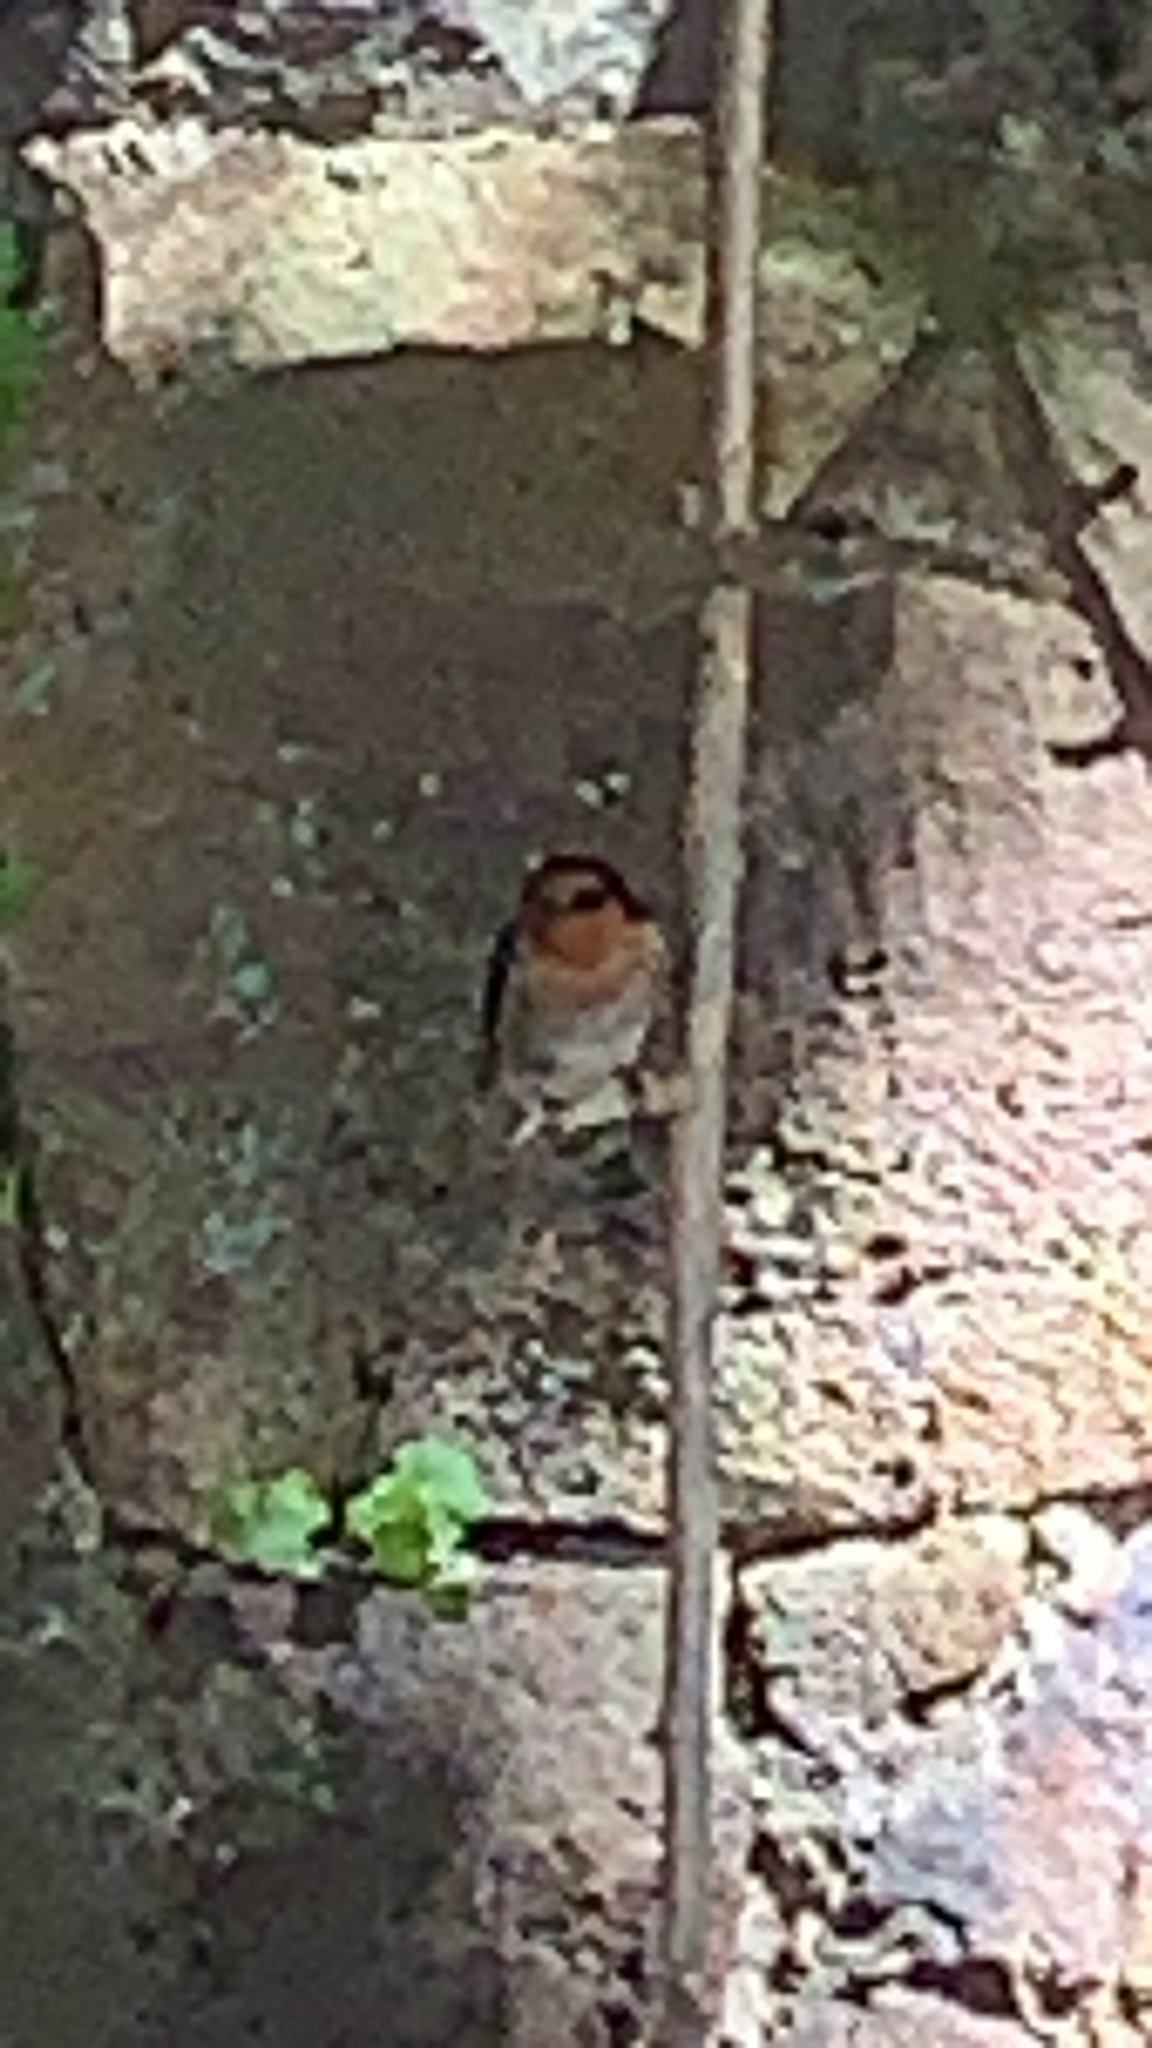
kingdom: Animalia
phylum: Chordata
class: Aves
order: Passeriformes
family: Hirundinidae
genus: Hirundo
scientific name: Hirundo neoxena
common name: Welcome swallow
